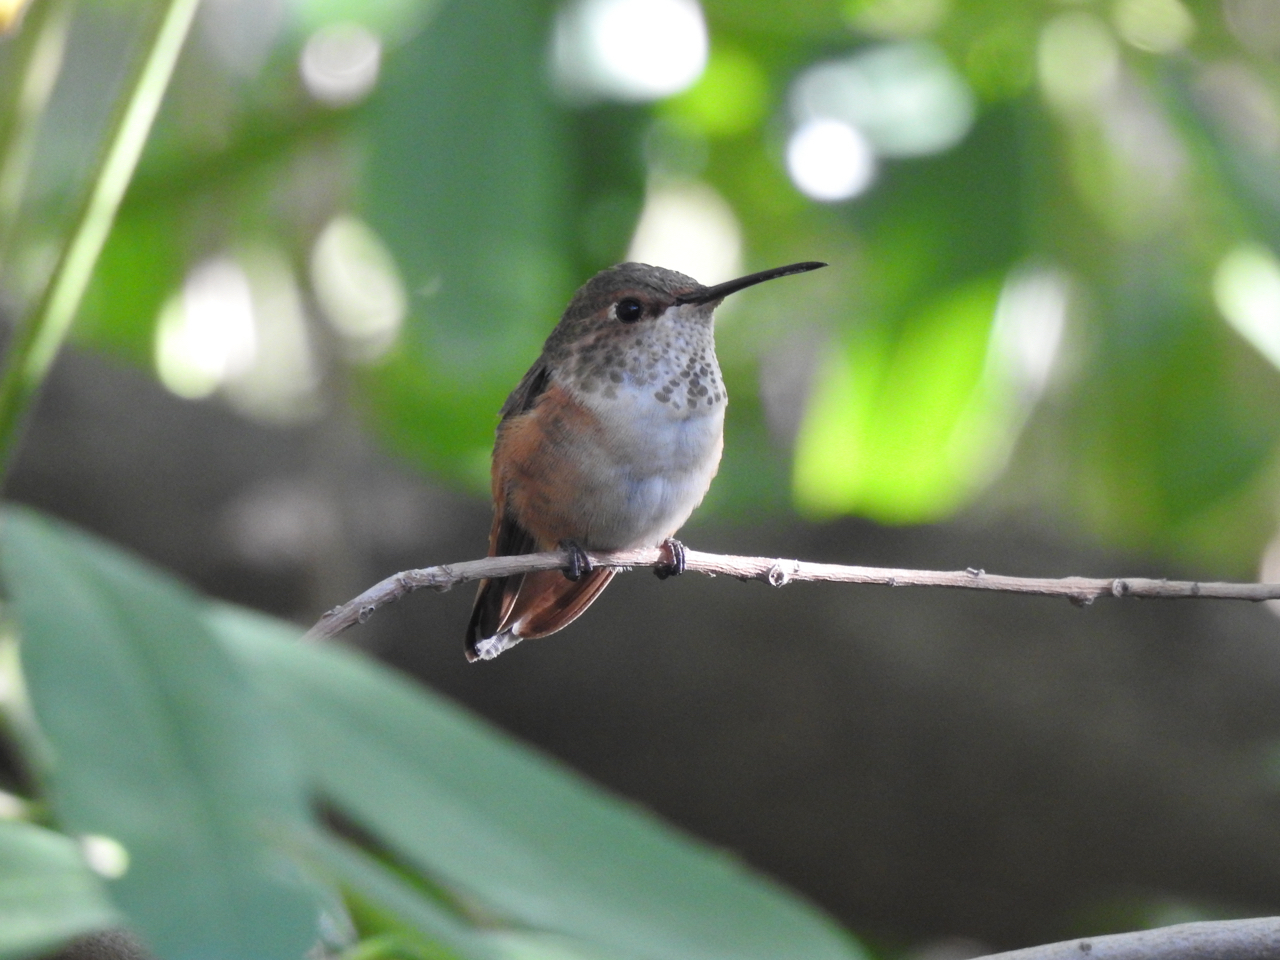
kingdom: Animalia
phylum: Chordata
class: Aves
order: Apodiformes
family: Trochilidae
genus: Selasphorus
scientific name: Selasphorus sasin
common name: Allen's hummingbird
